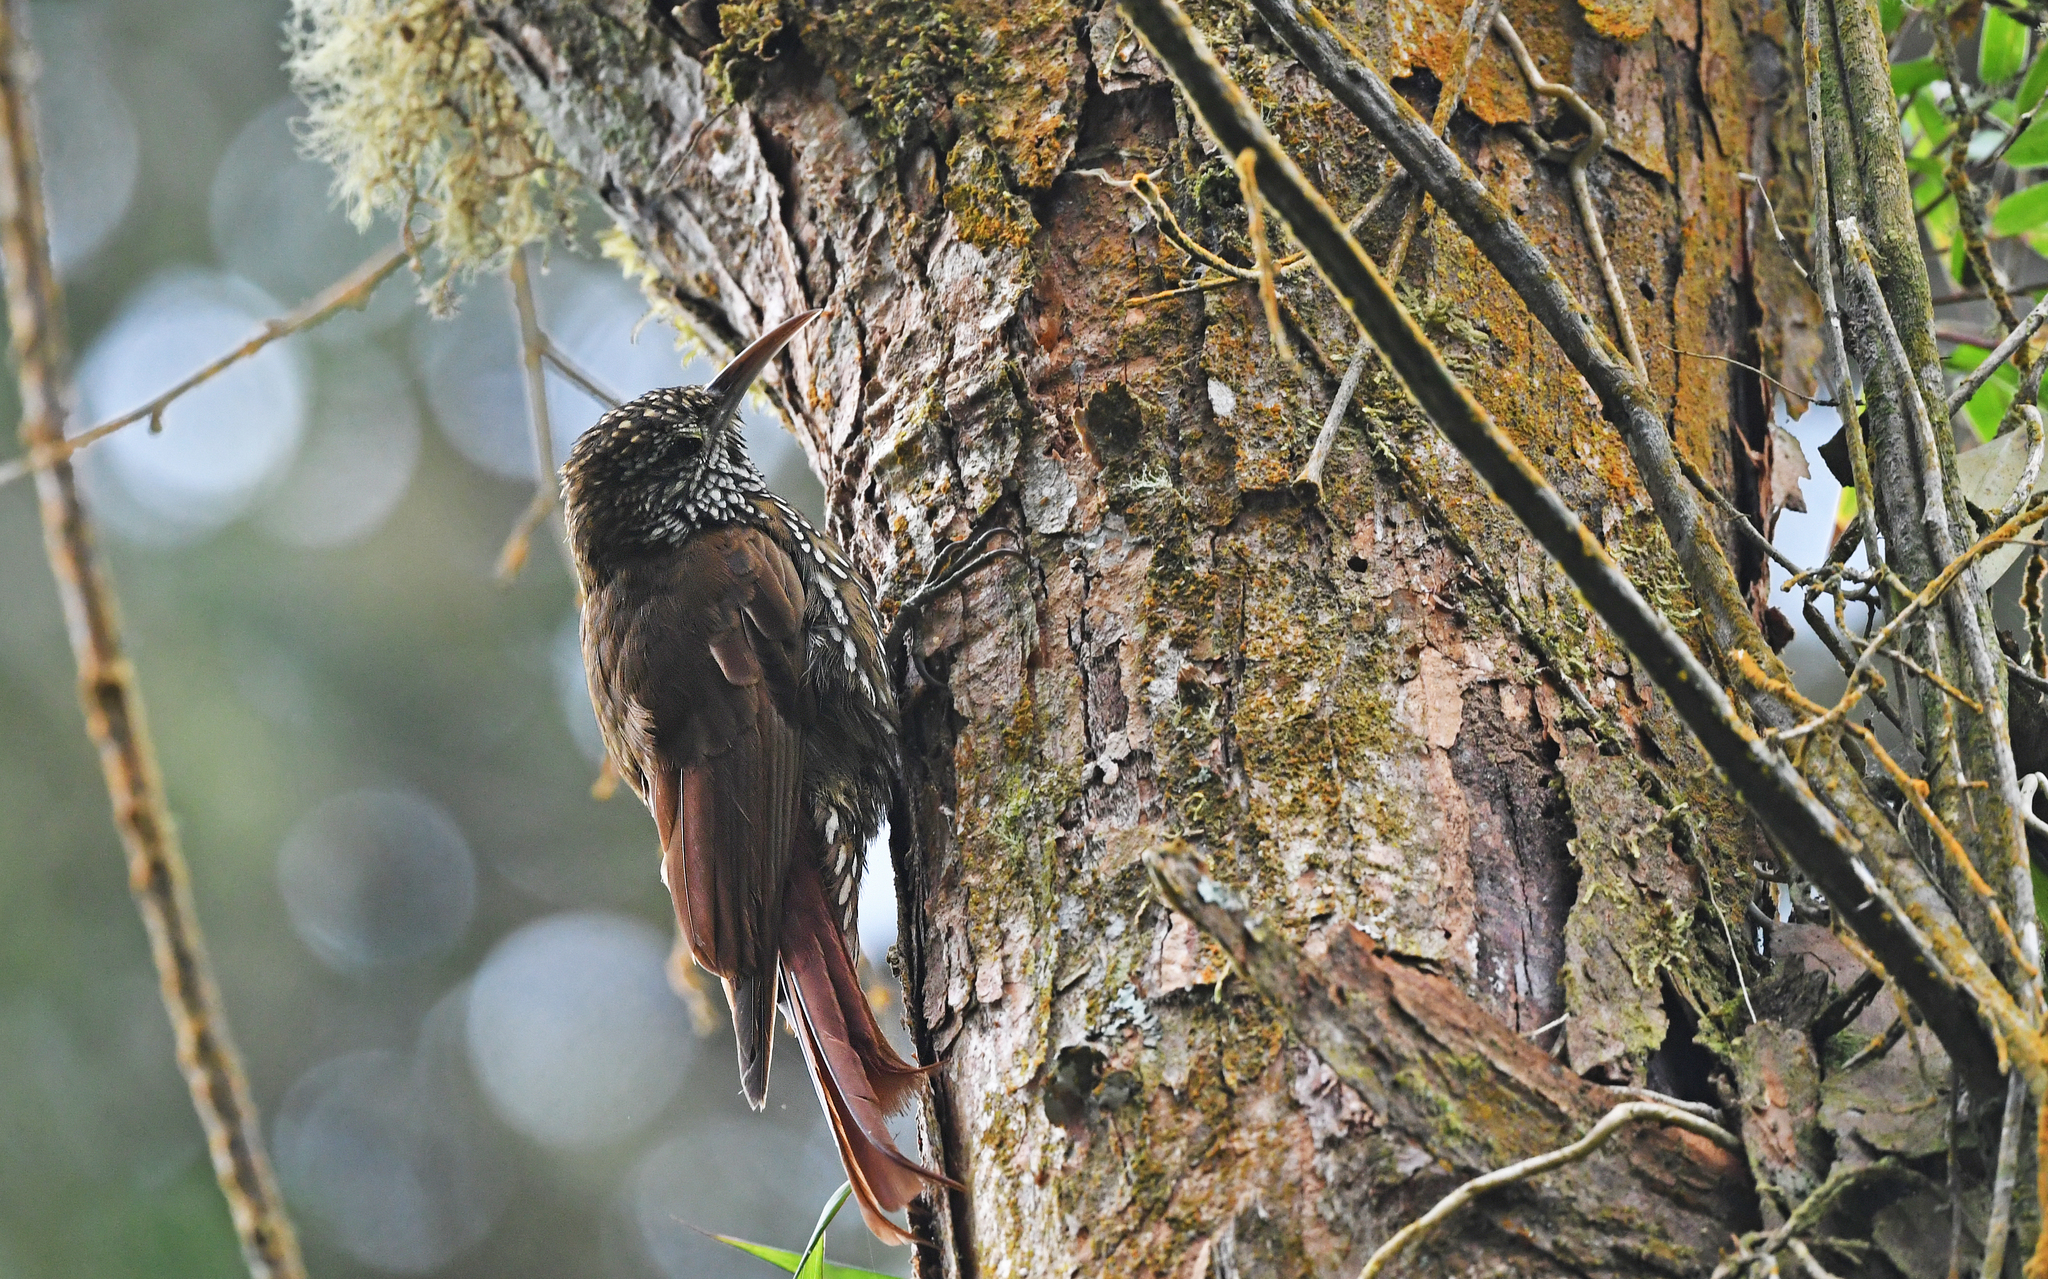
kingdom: Animalia
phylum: Chordata
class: Aves
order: Passeriformes
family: Furnariidae
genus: Lepidocolaptes
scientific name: Lepidocolaptes lacrymiger
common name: Montane woodcreeper
